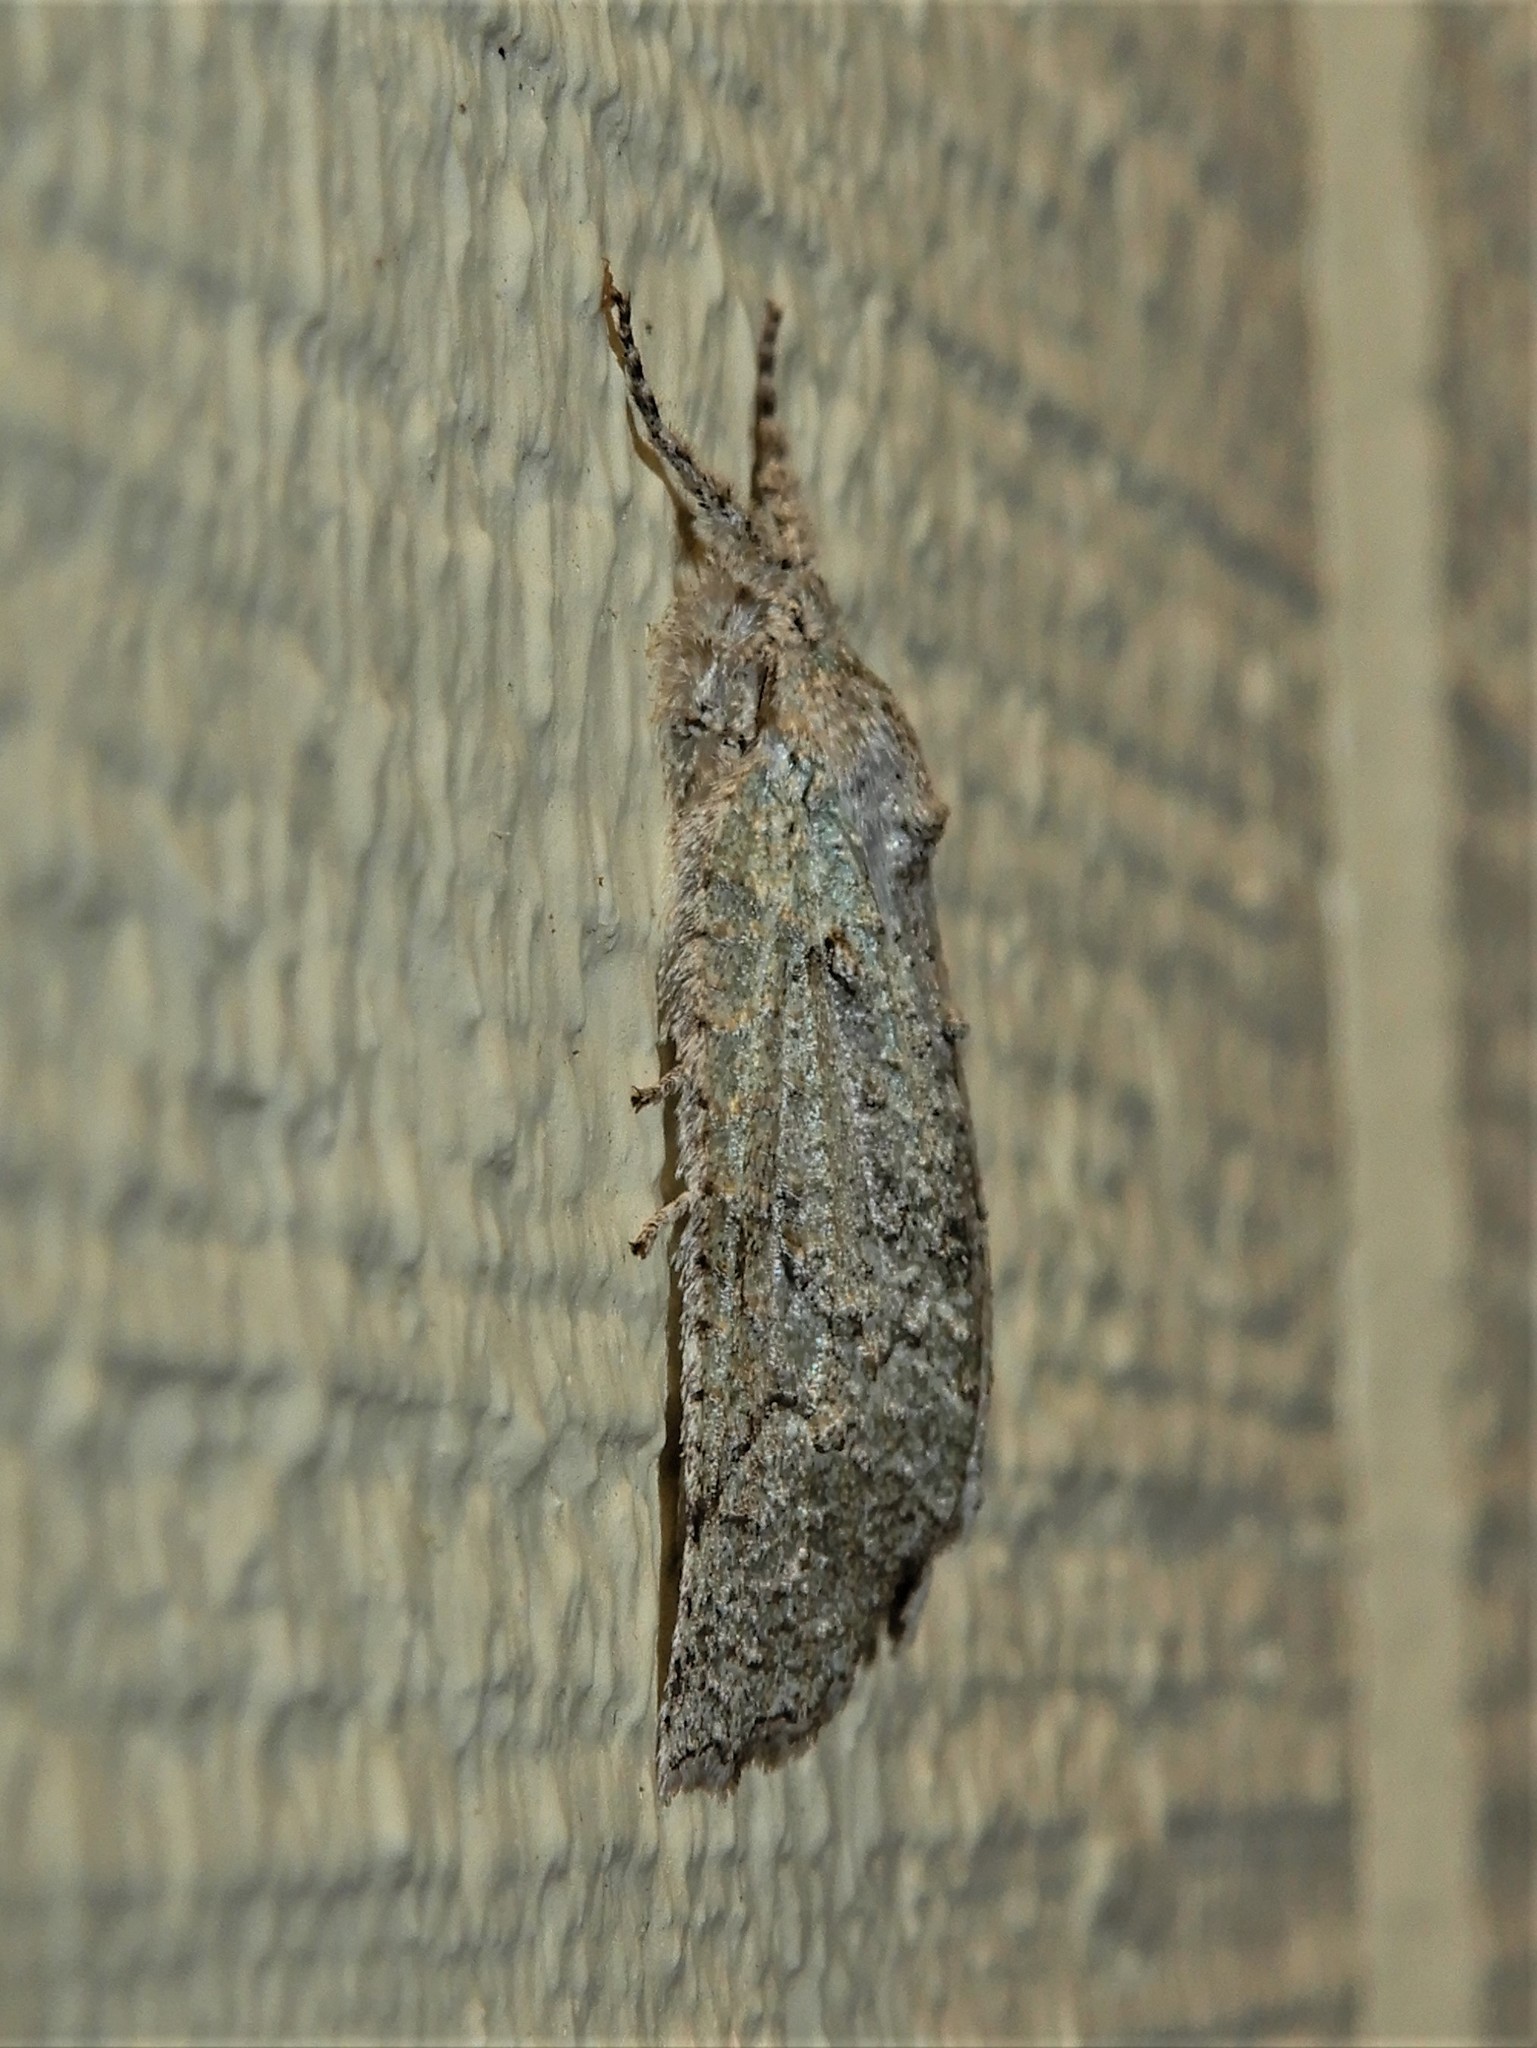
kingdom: Animalia
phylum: Arthropoda
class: Insecta
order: Lepidoptera
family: Geometridae
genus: Declana
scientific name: Declana floccosa
